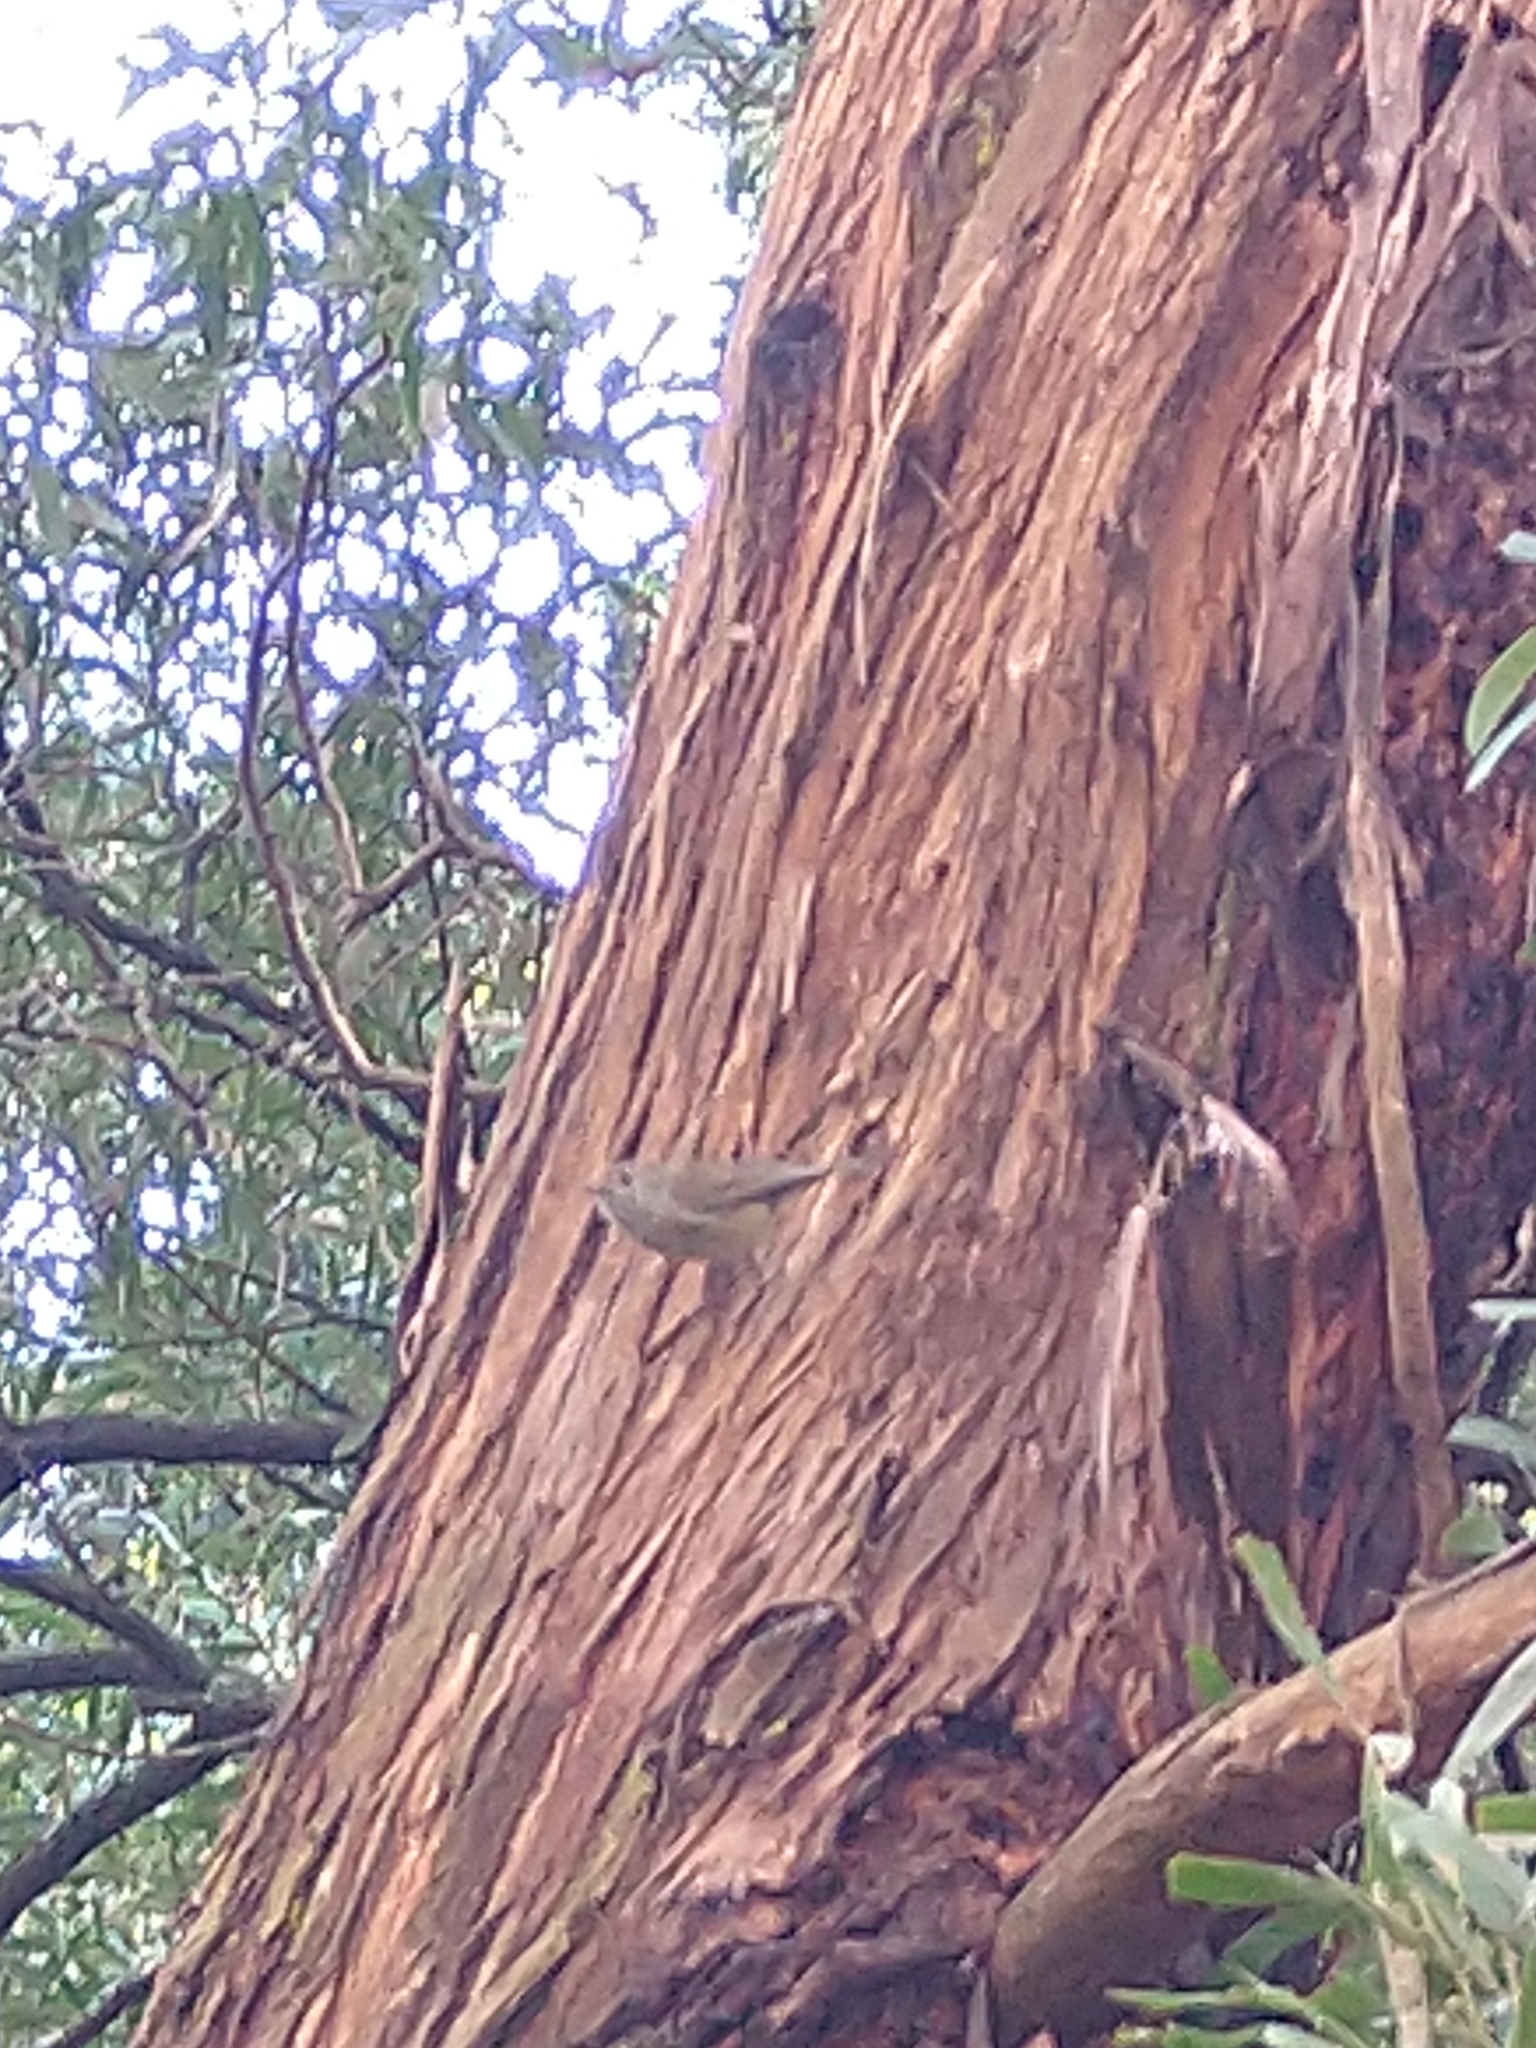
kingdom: Animalia
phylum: Chordata
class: Aves
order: Passeriformes
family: Acanthizidae
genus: Acanthiza
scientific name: Acanthiza pusilla
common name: Brown thornbill
